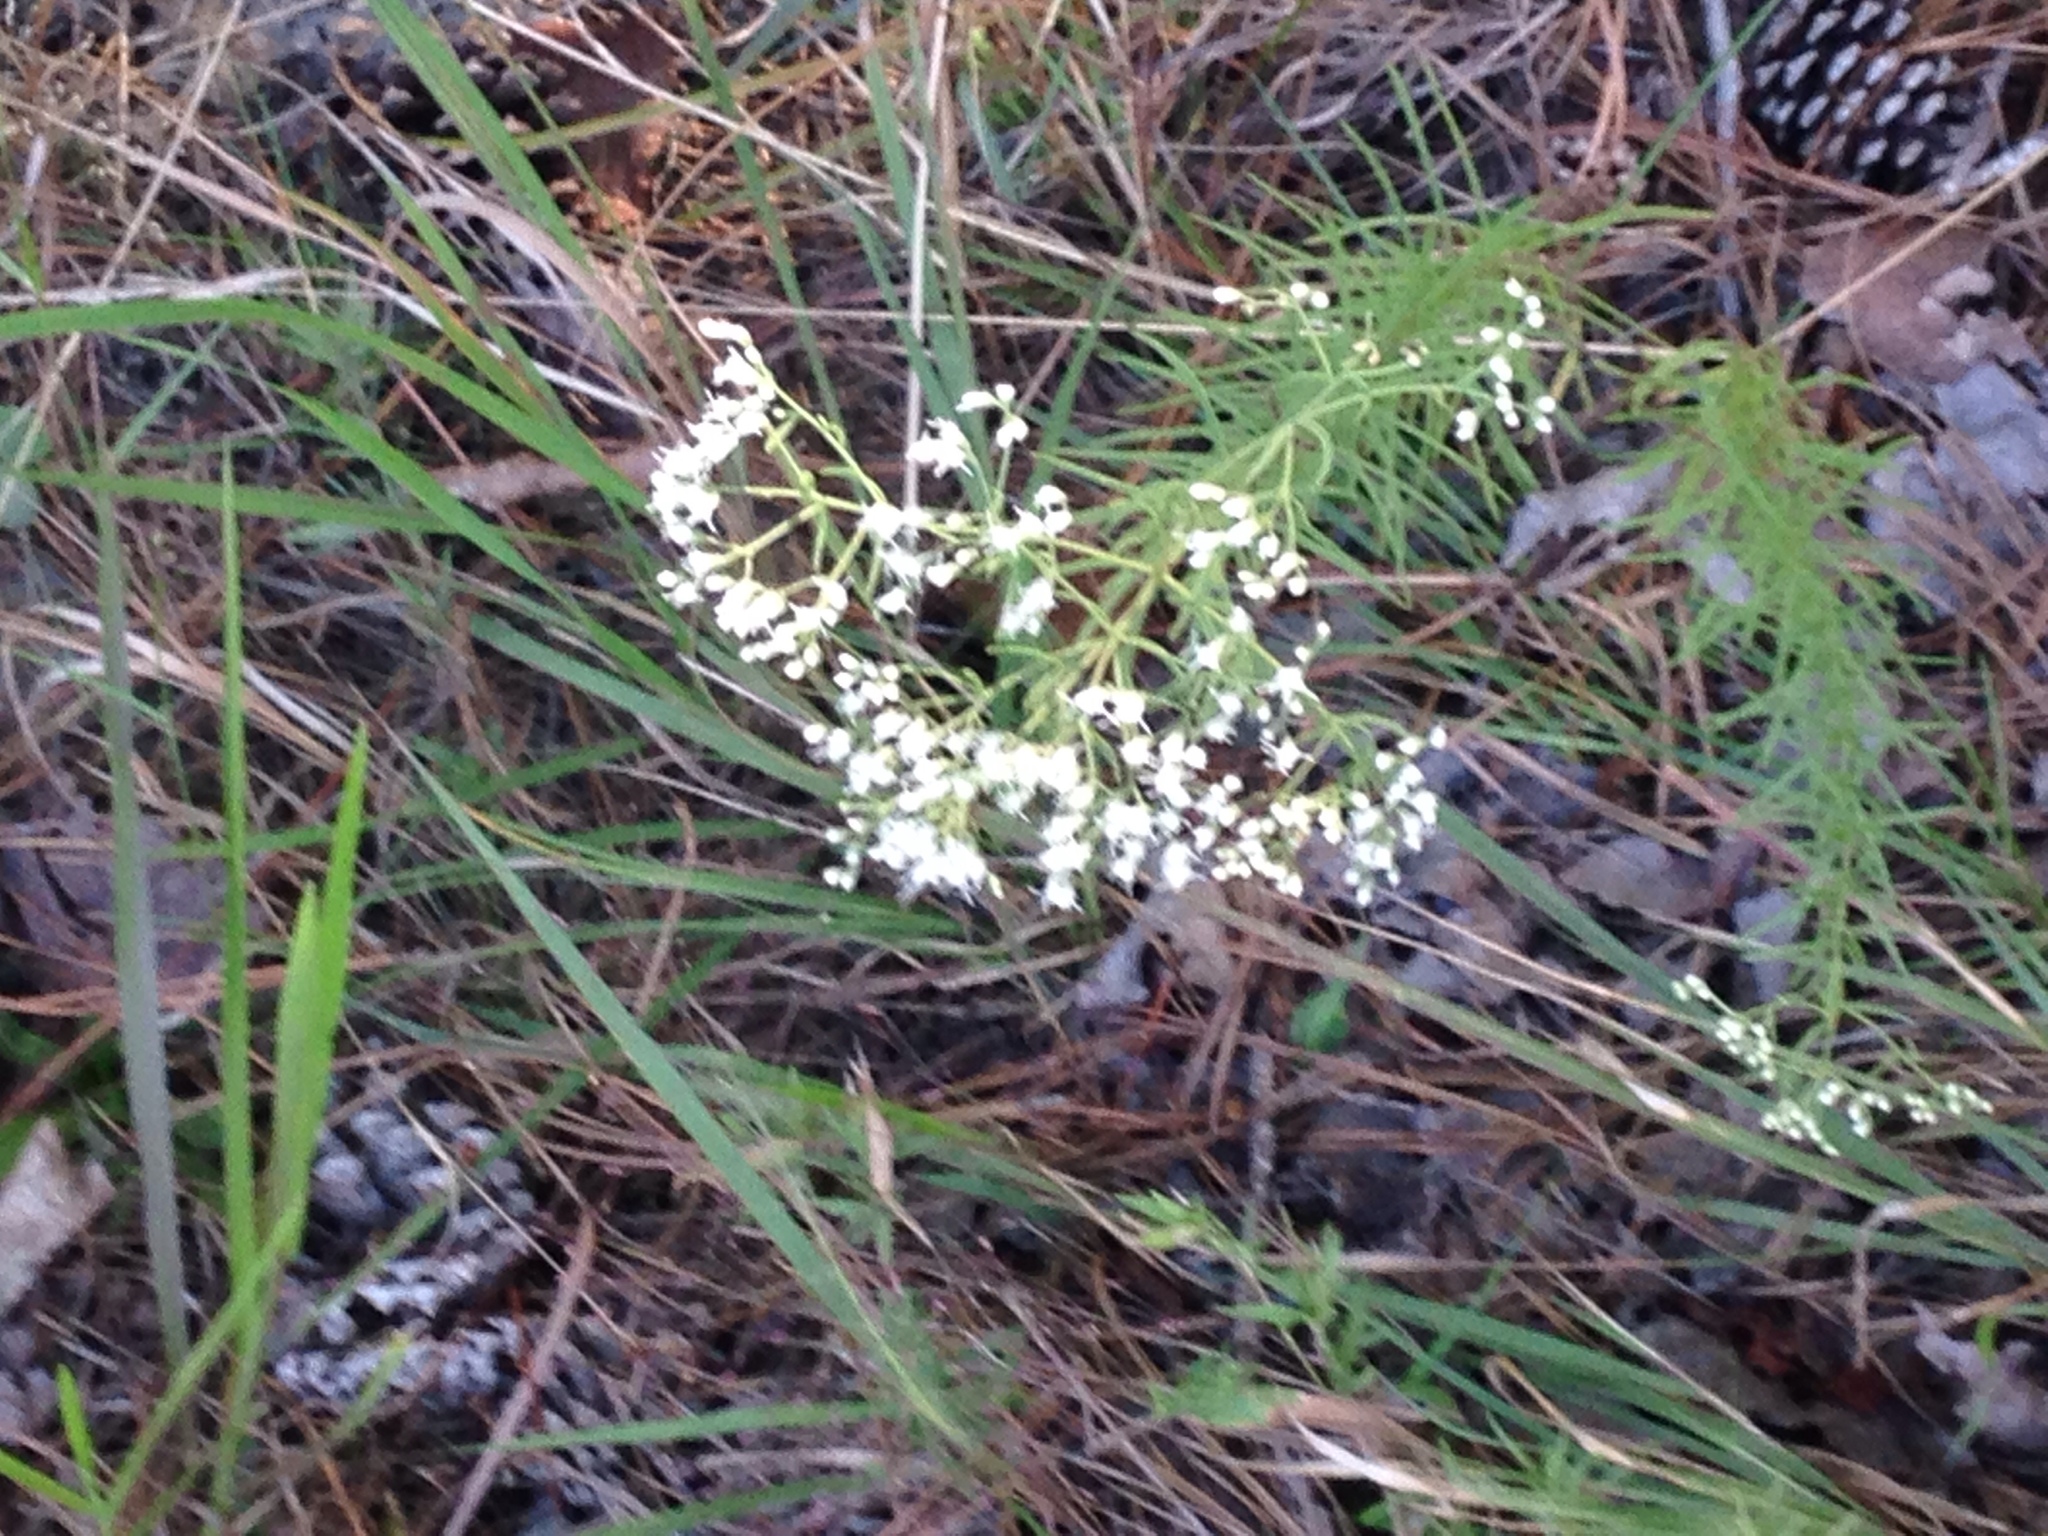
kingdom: Plantae
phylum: Tracheophyta
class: Magnoliopsida
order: Asterales
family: Asteraceae
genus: Eupatorium
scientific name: Eupatorium hyssopifolium
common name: Hyssop-leaf thoroughwort
